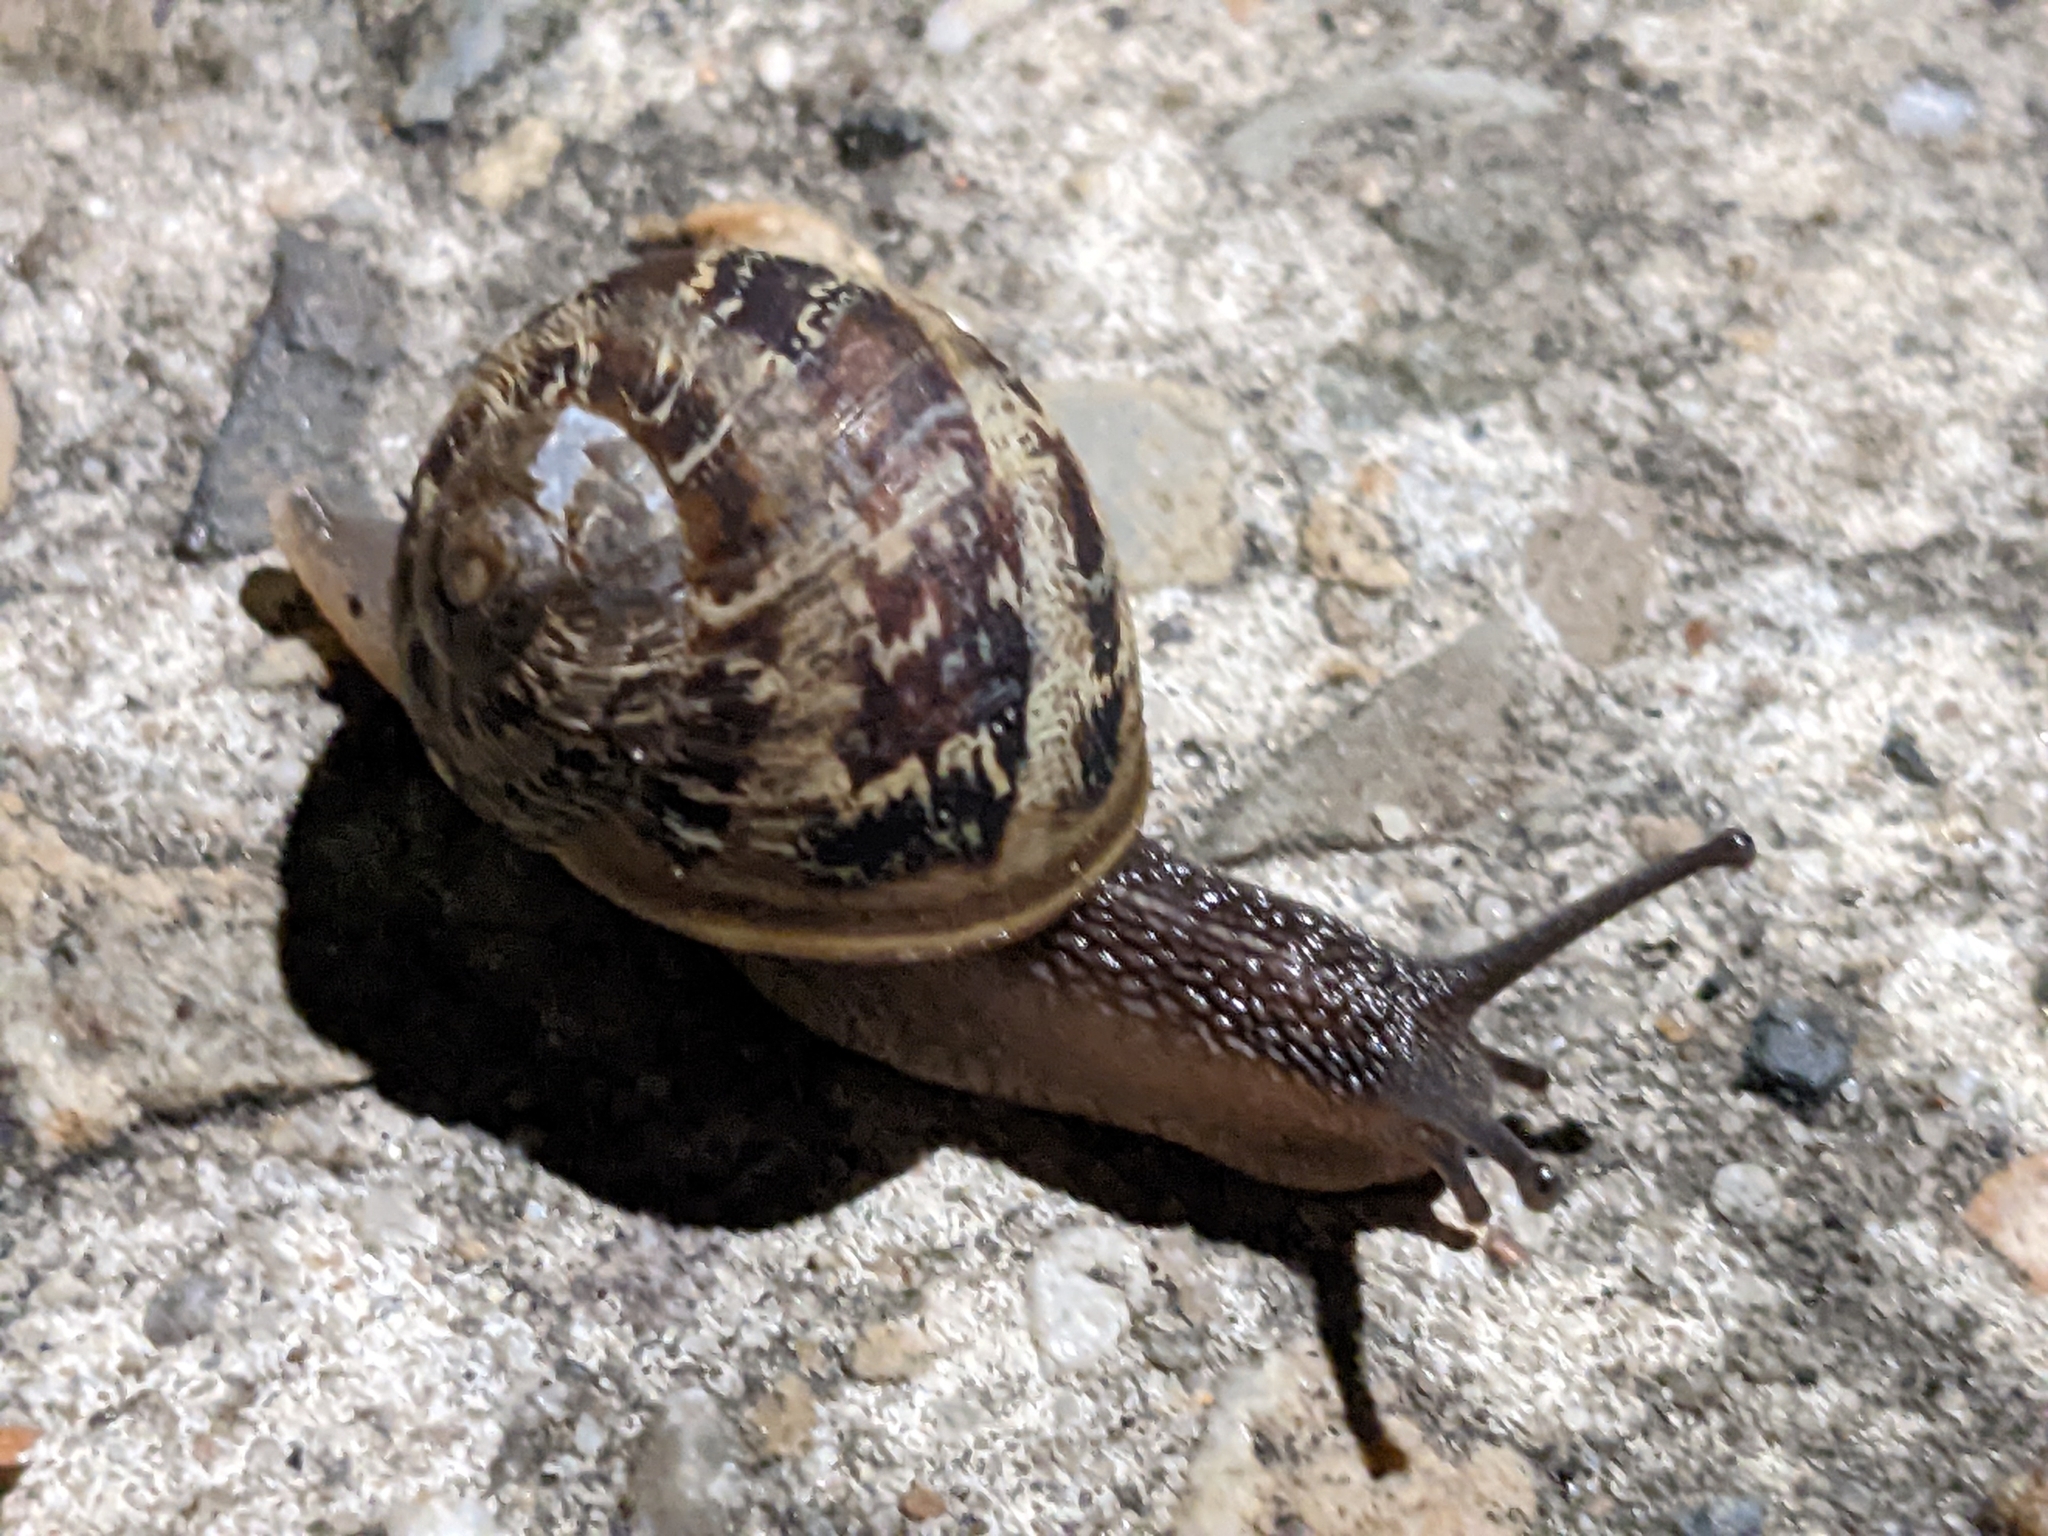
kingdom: Animalia
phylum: Mollusca
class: Gastropoda
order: Stylommatophora
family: Helicidae
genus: Cornu
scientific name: Cornu aspersum
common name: Brown garden snail
